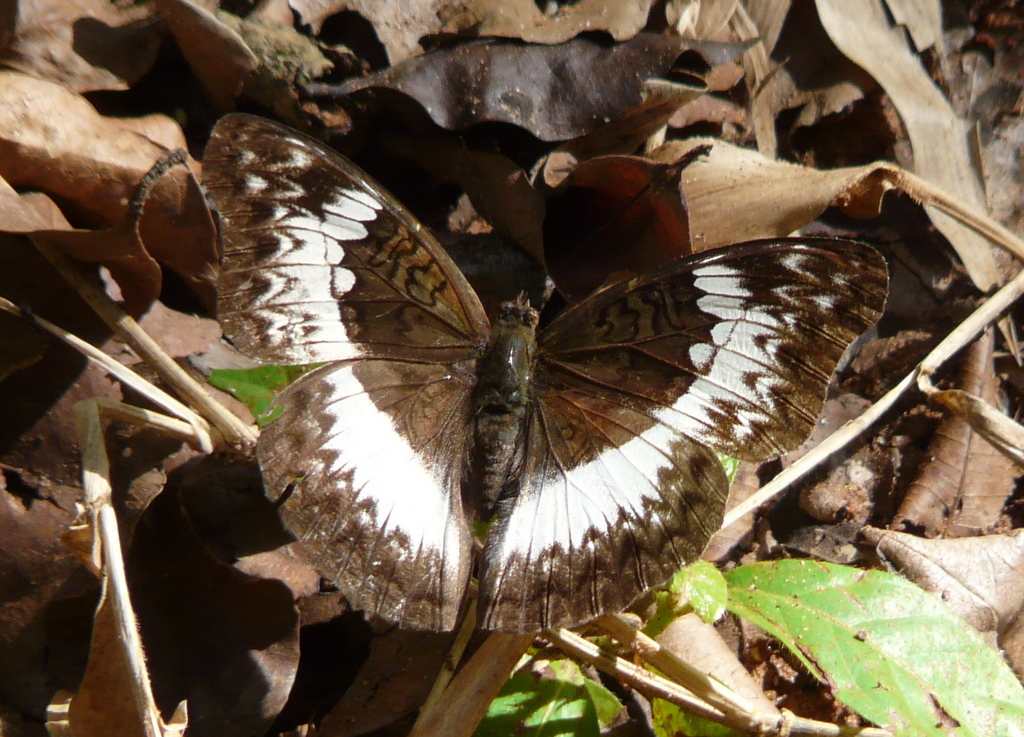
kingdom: Animalia
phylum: Arthropoda
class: Insecta
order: Lepidoptera
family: Nymphalidae
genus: Cymothoe
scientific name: Cymothoe coranus
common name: Blonde glider
